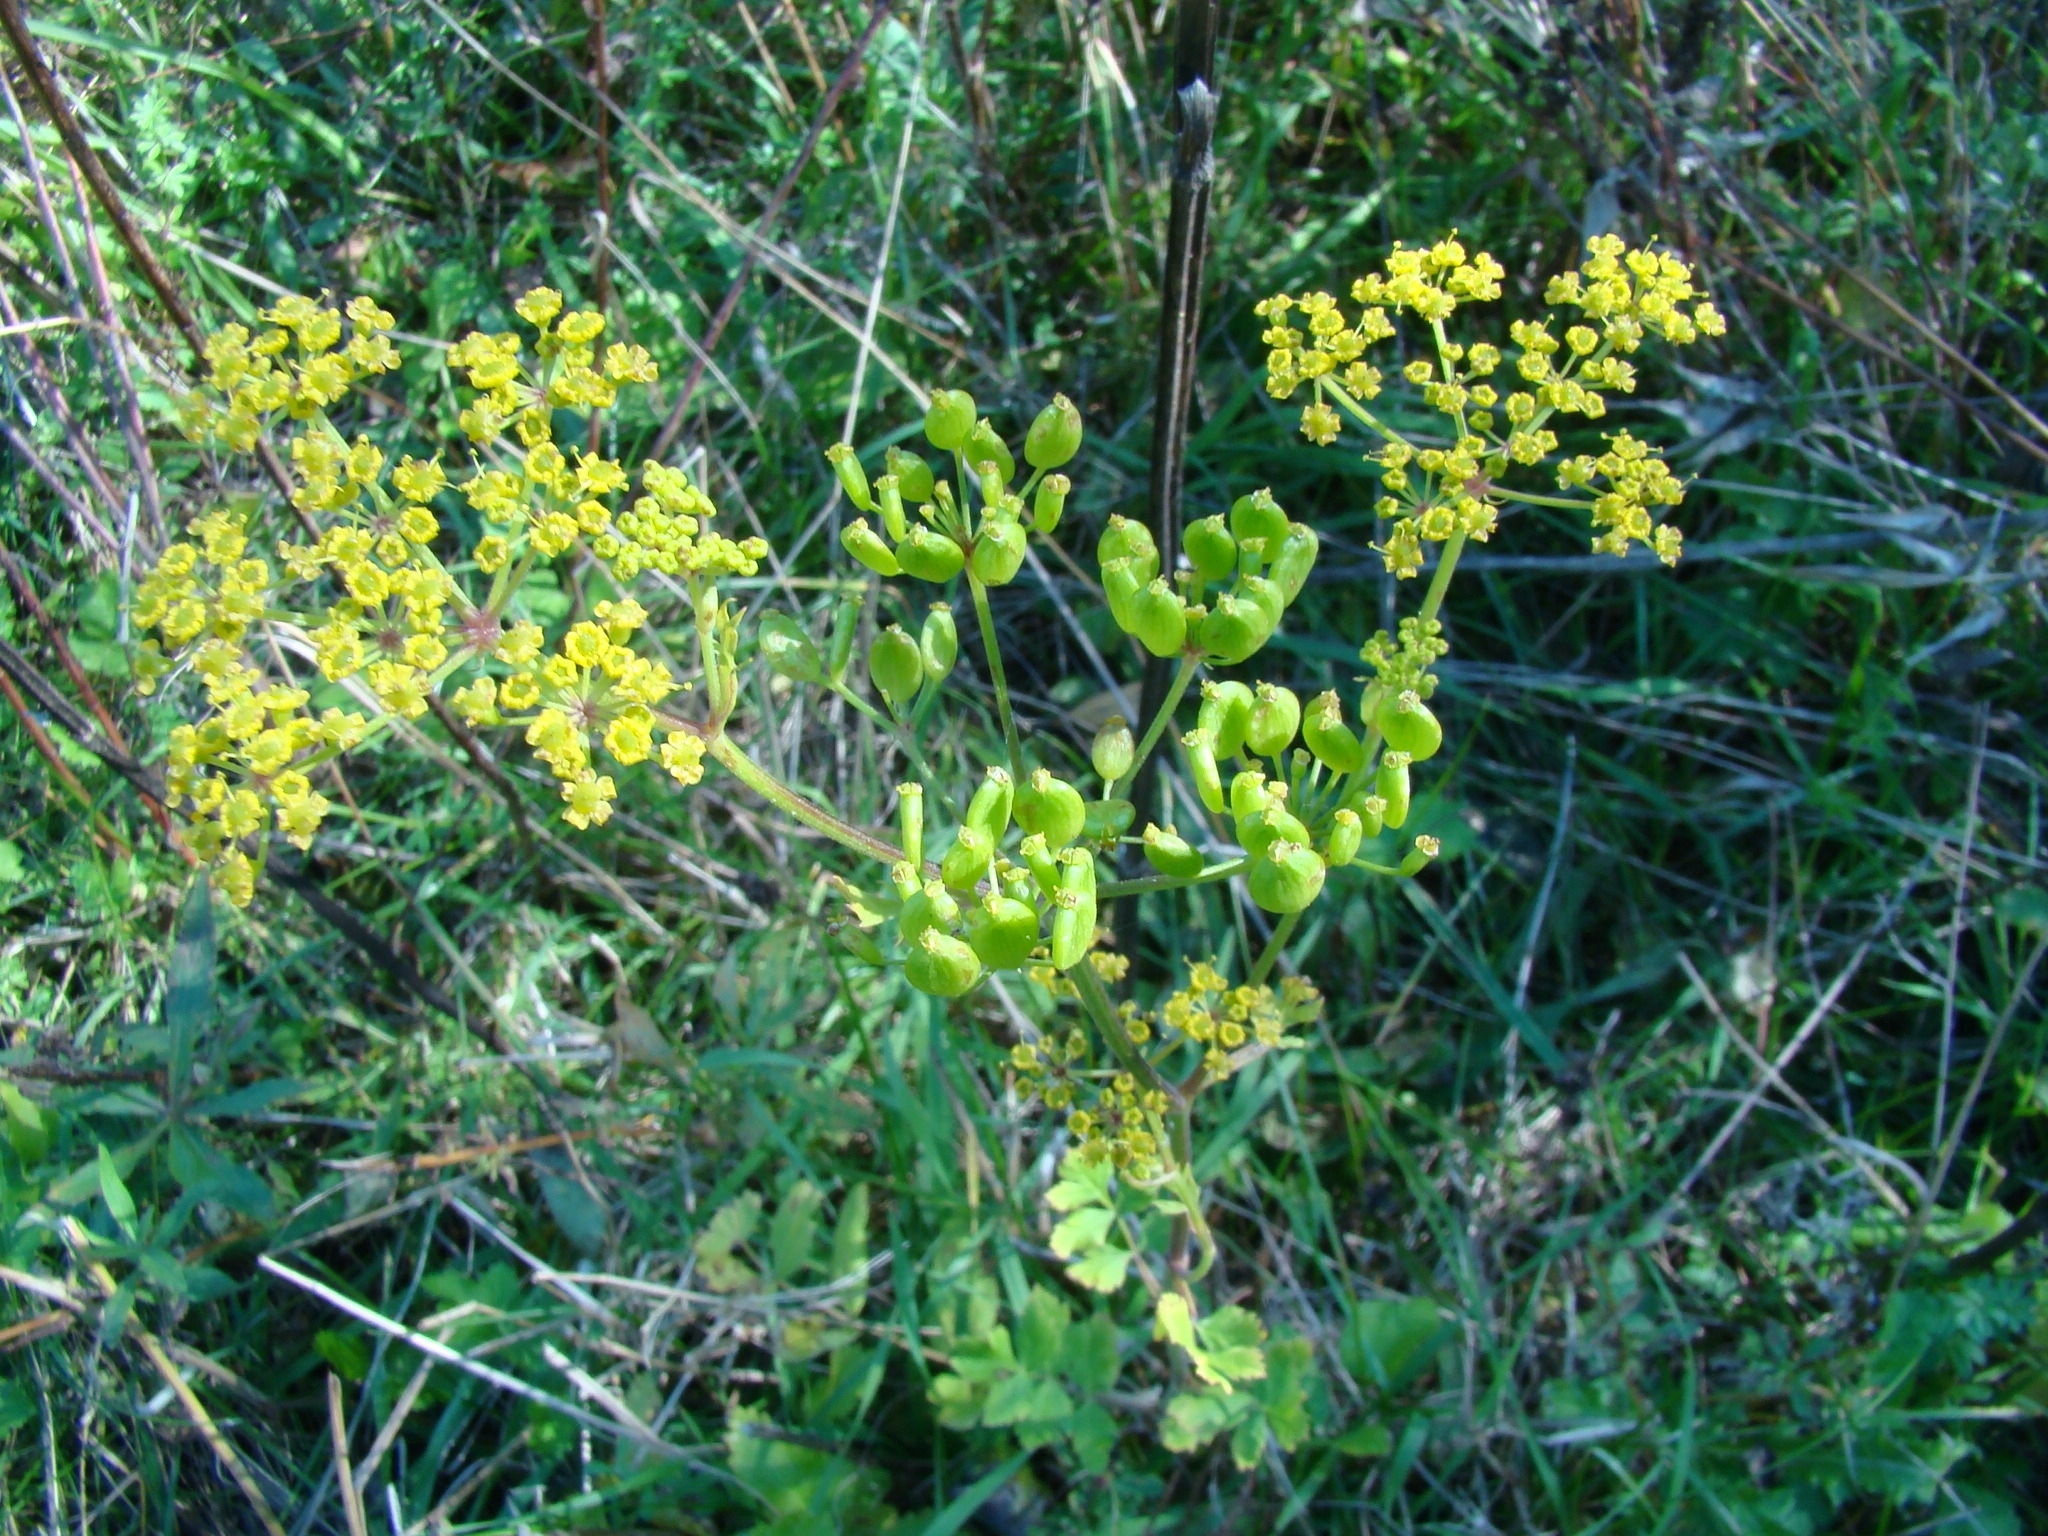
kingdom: Plantae
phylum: Tracheophyta
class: Magnoliopsida
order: Apiales
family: Apiaceae
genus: Pastinaca
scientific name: Pastinaca sativa
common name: Wild parsnip
